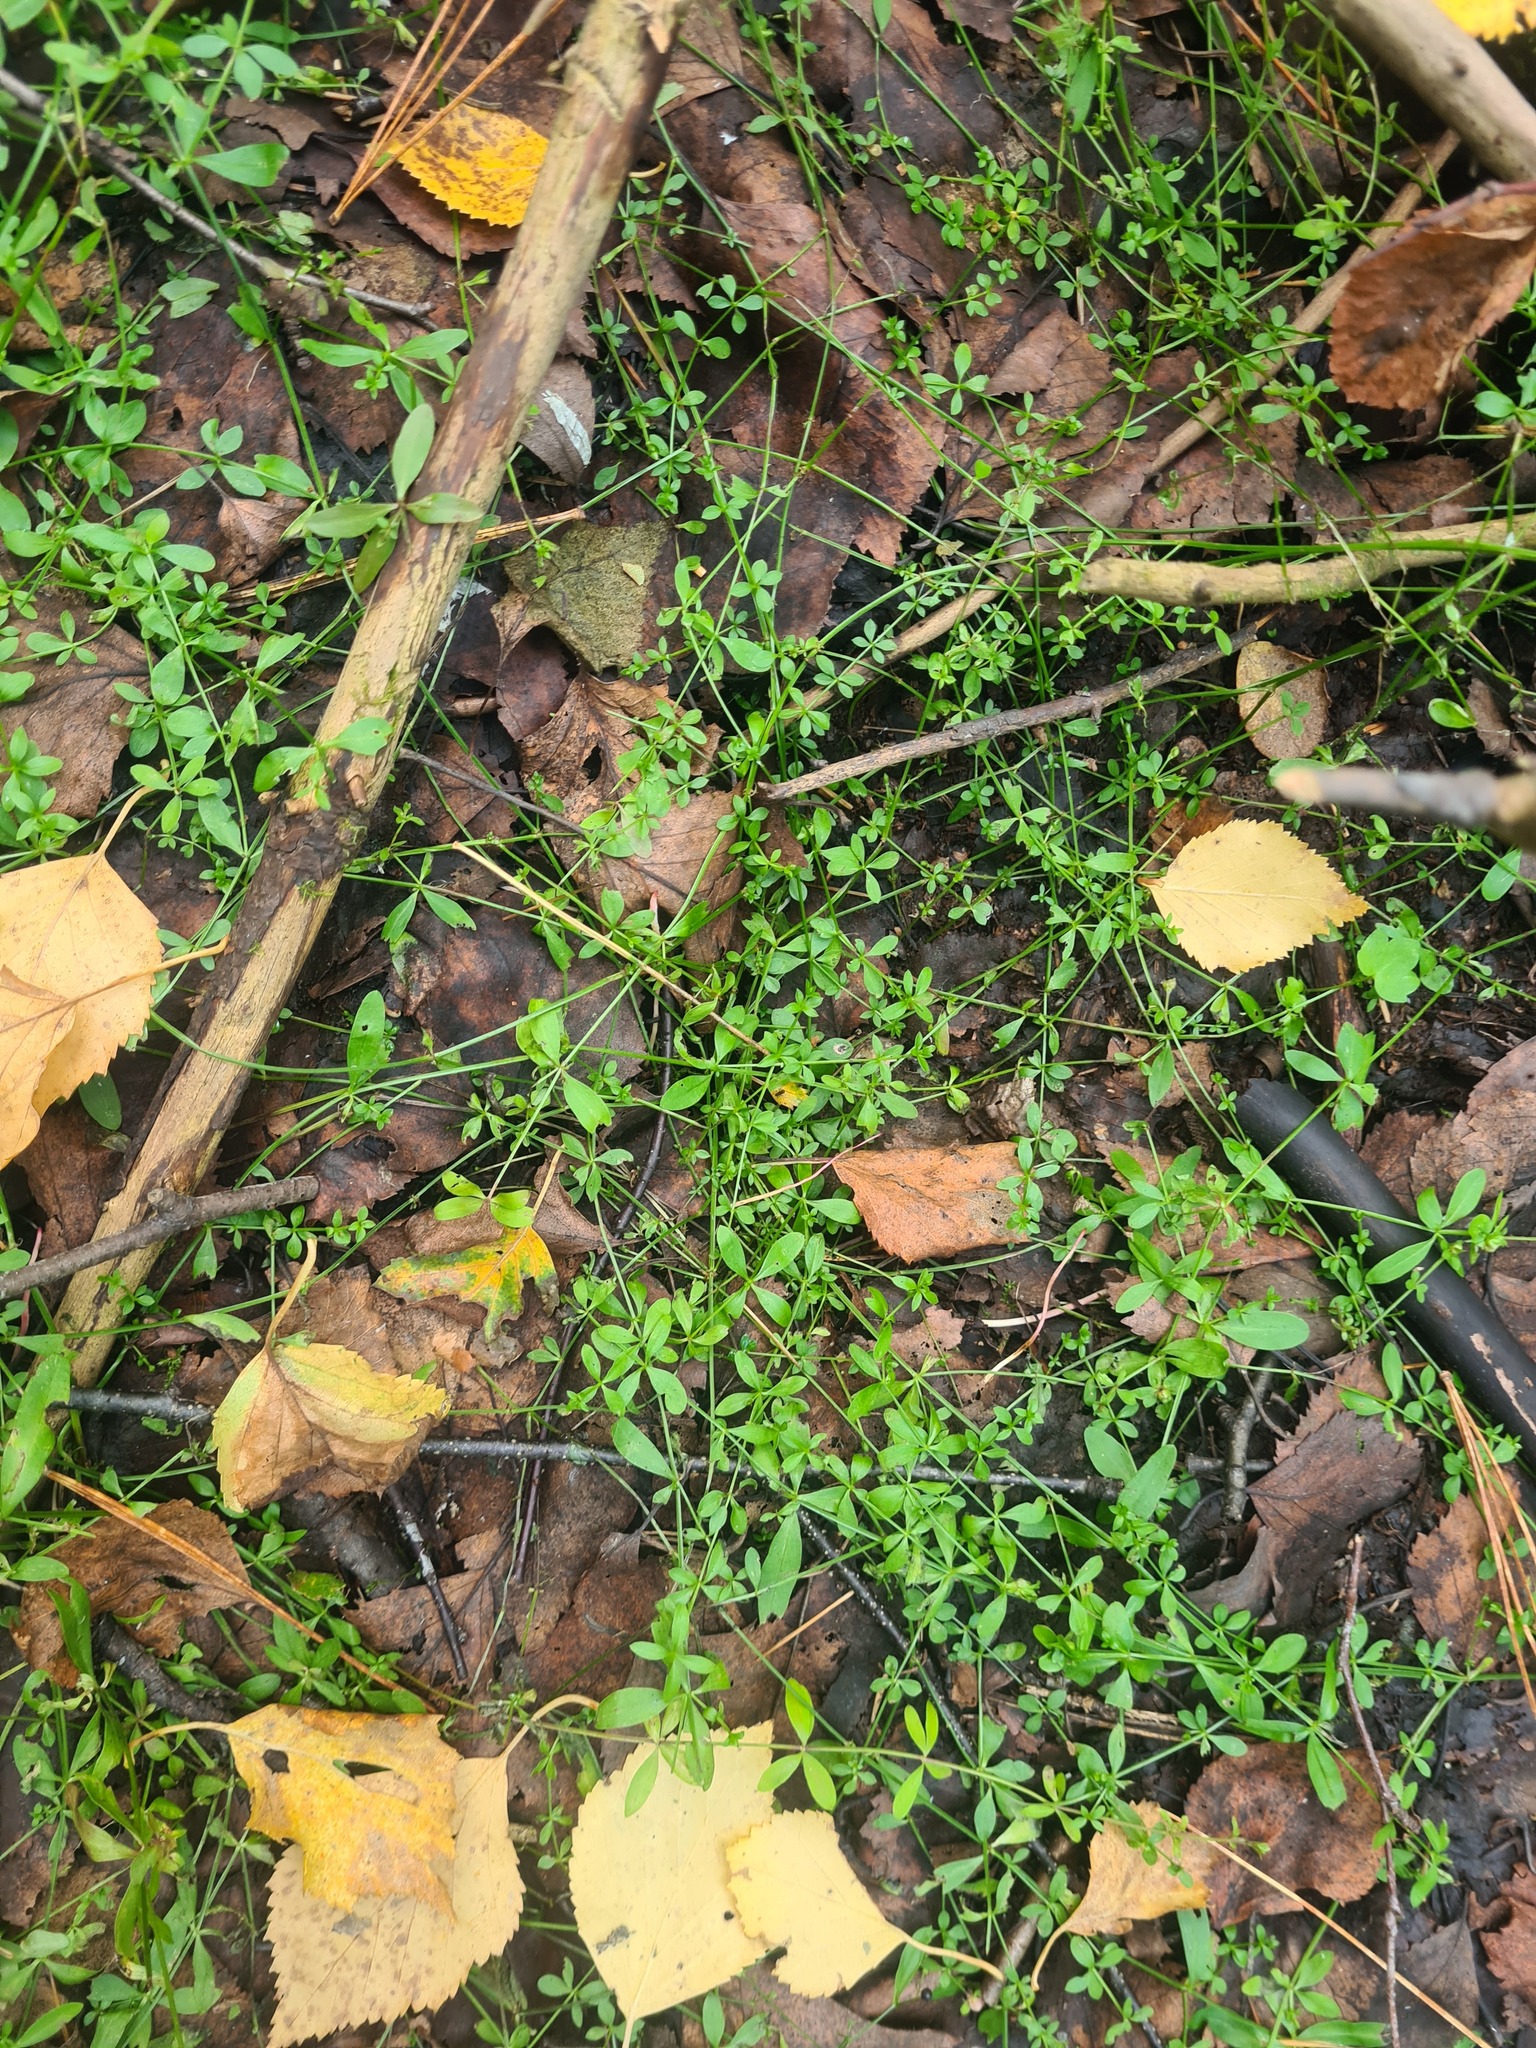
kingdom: Plantae
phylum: Tracheophyta
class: Magnoliopsida
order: Gentianales
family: Rubiaceae
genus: Galium
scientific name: Galium palustre
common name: Common marsh-bedstraw
